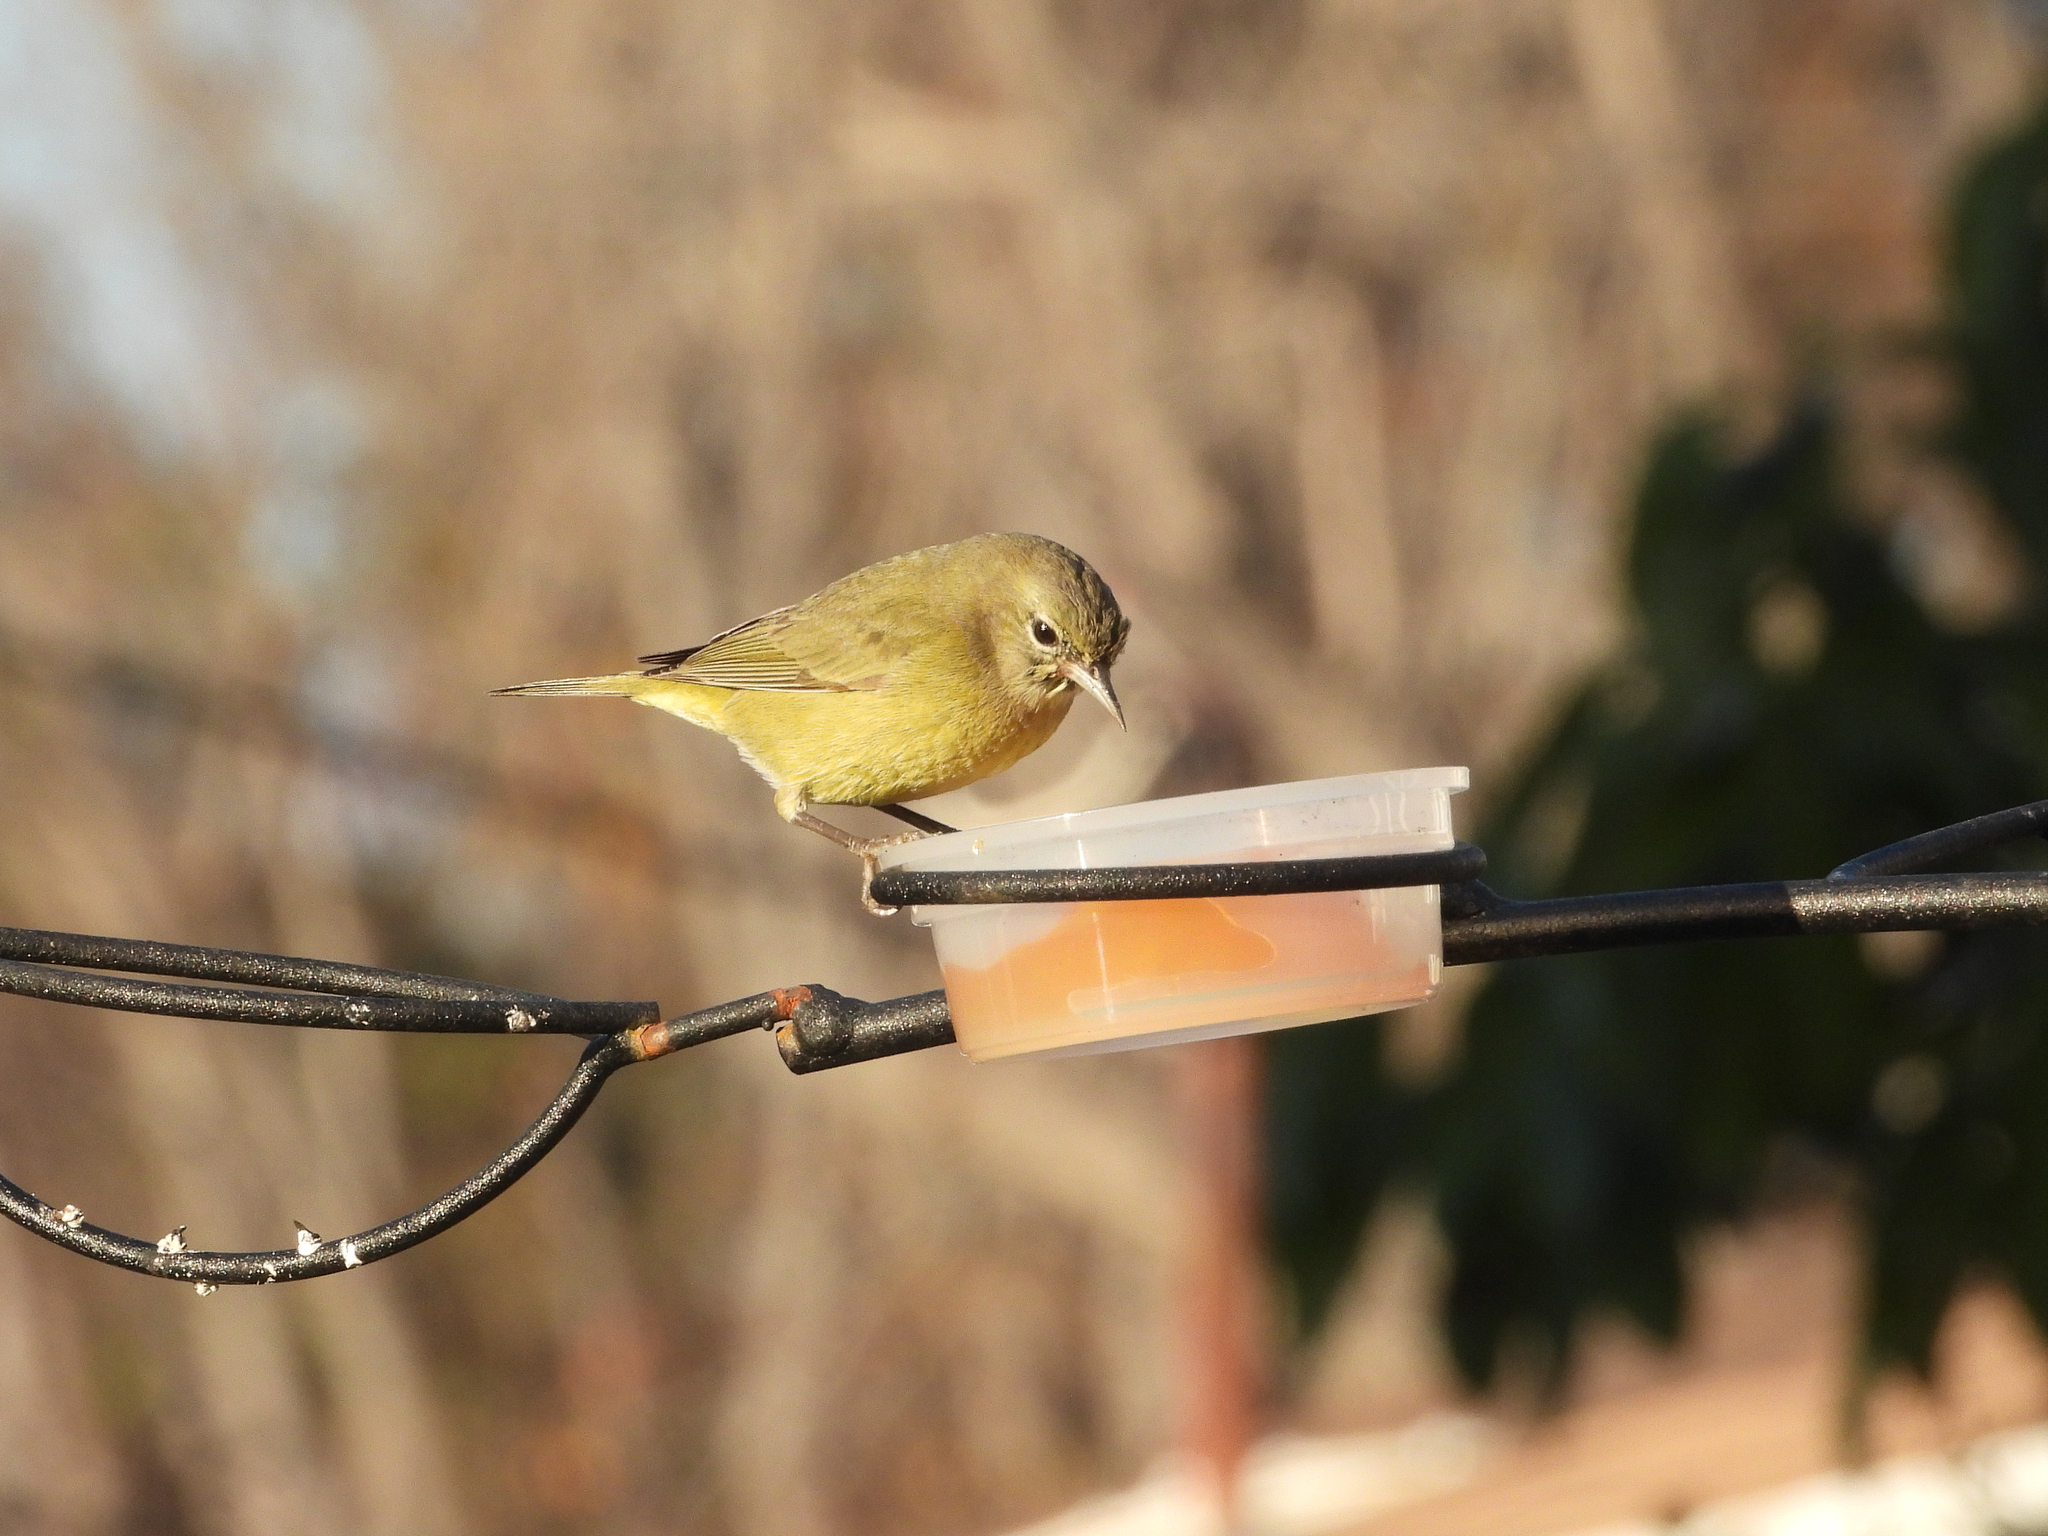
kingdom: Animalia
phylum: Chordata
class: Aves
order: Passeriformes
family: Parulidae
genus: Leiothlypis
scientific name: Leiothlypis celata
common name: Orange-crowned warbler
